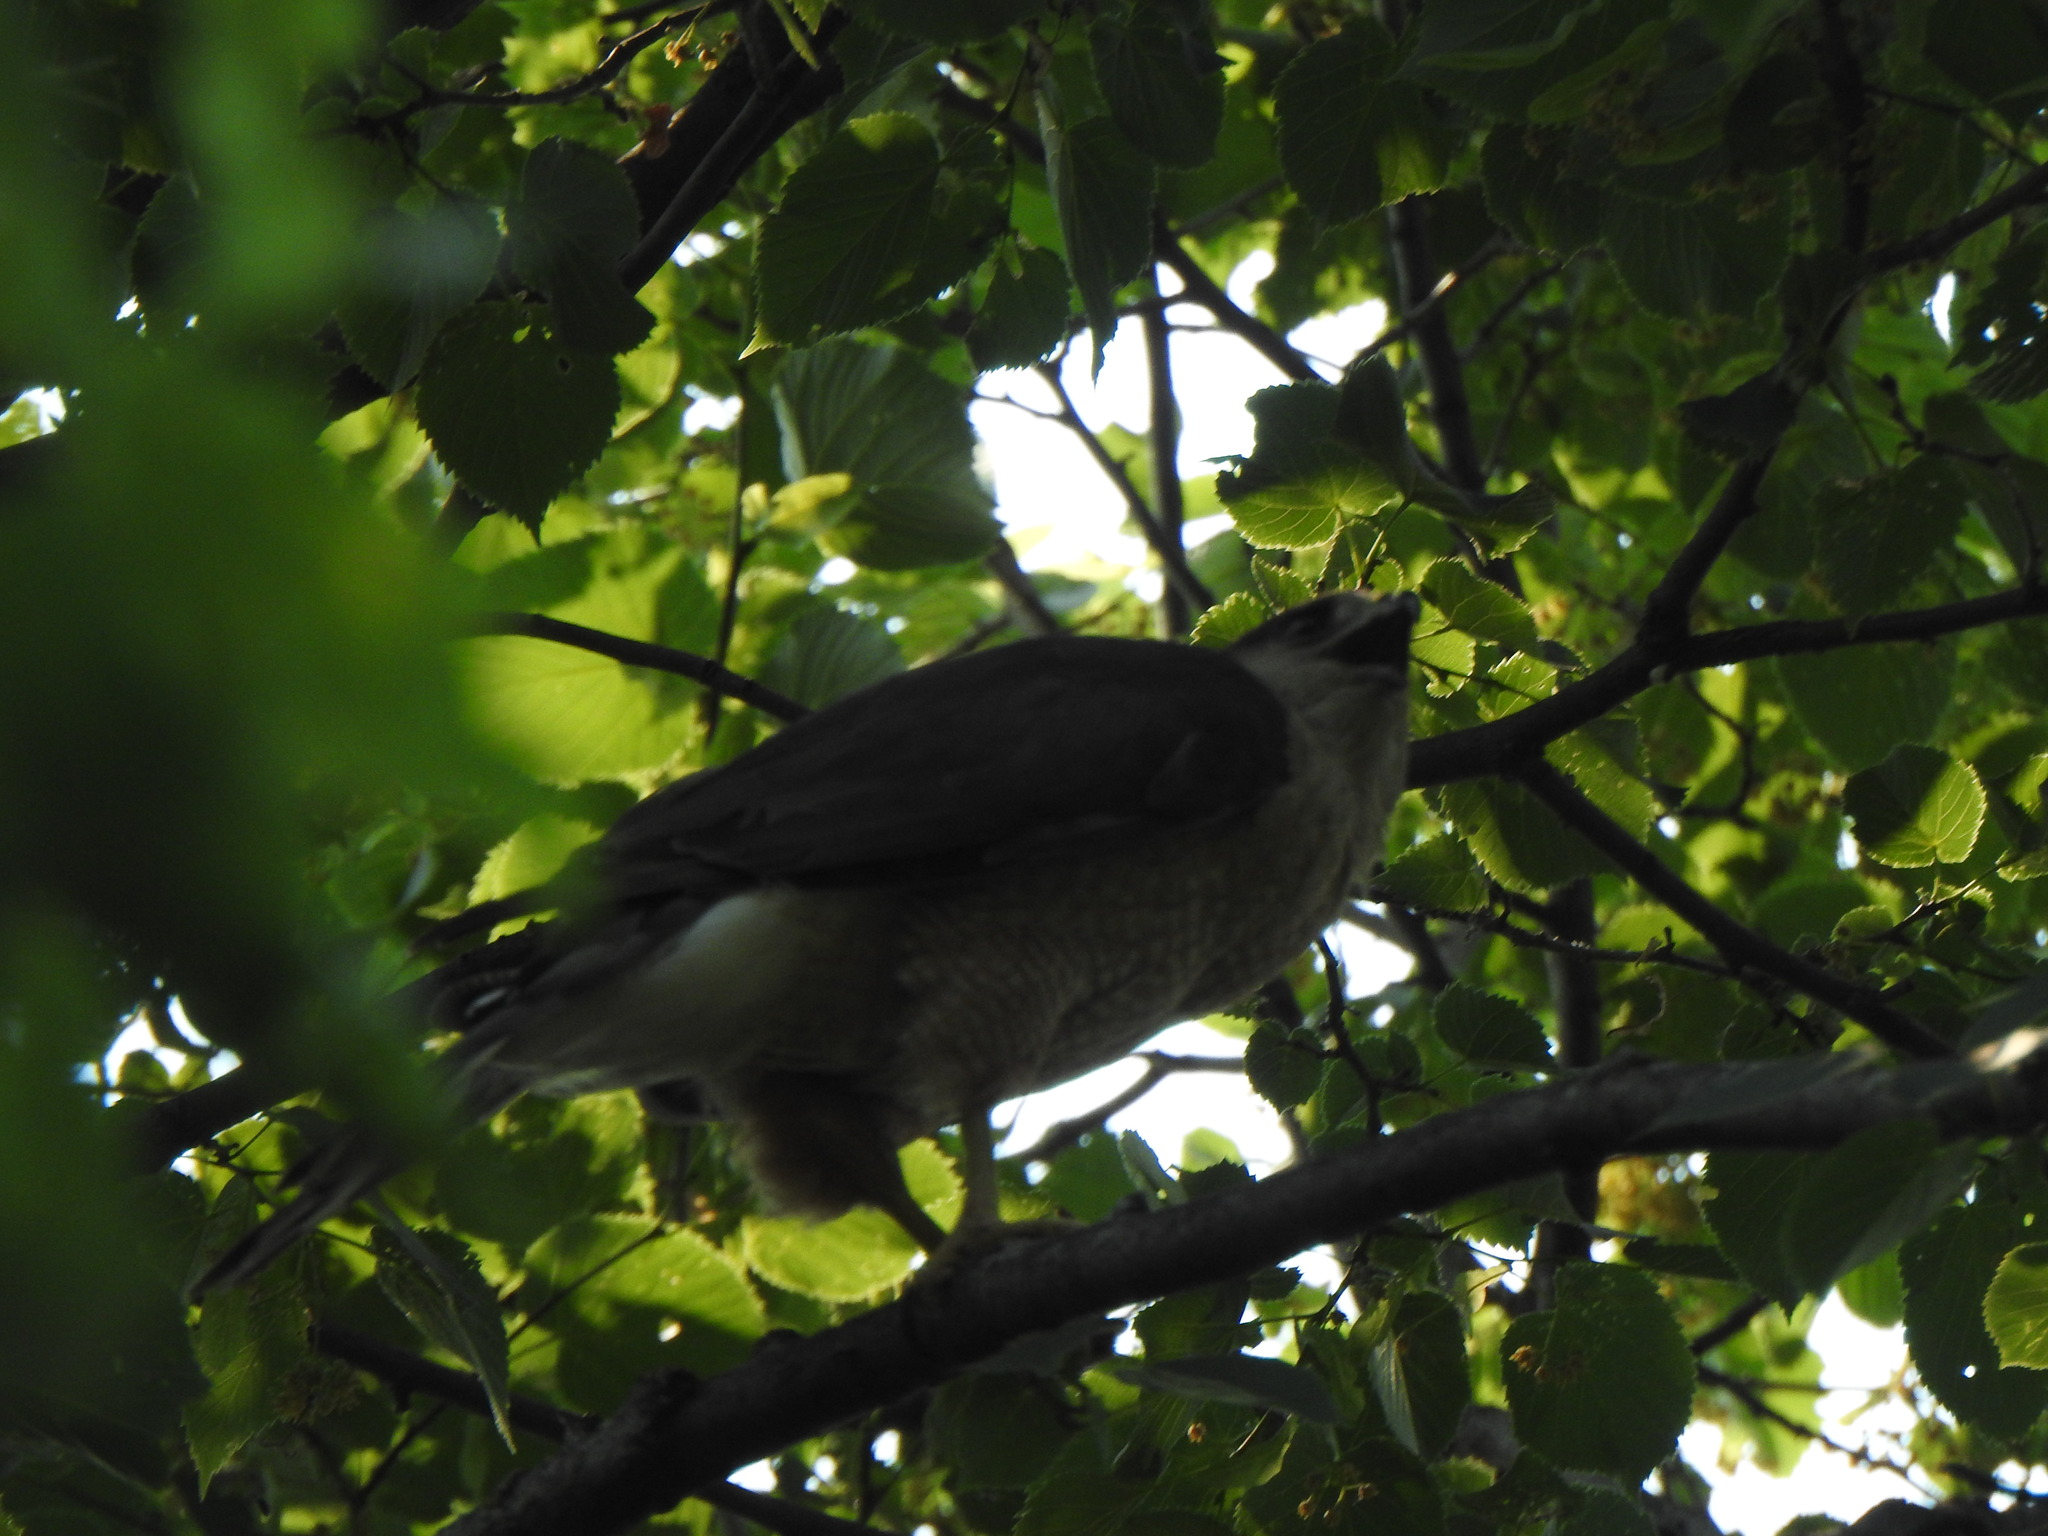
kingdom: Animalia
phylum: Chordata
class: Aves
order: Accipitriformes
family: Accipitridae
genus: Accipiter
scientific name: Accipiter cooperii
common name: Cooper's hawk
